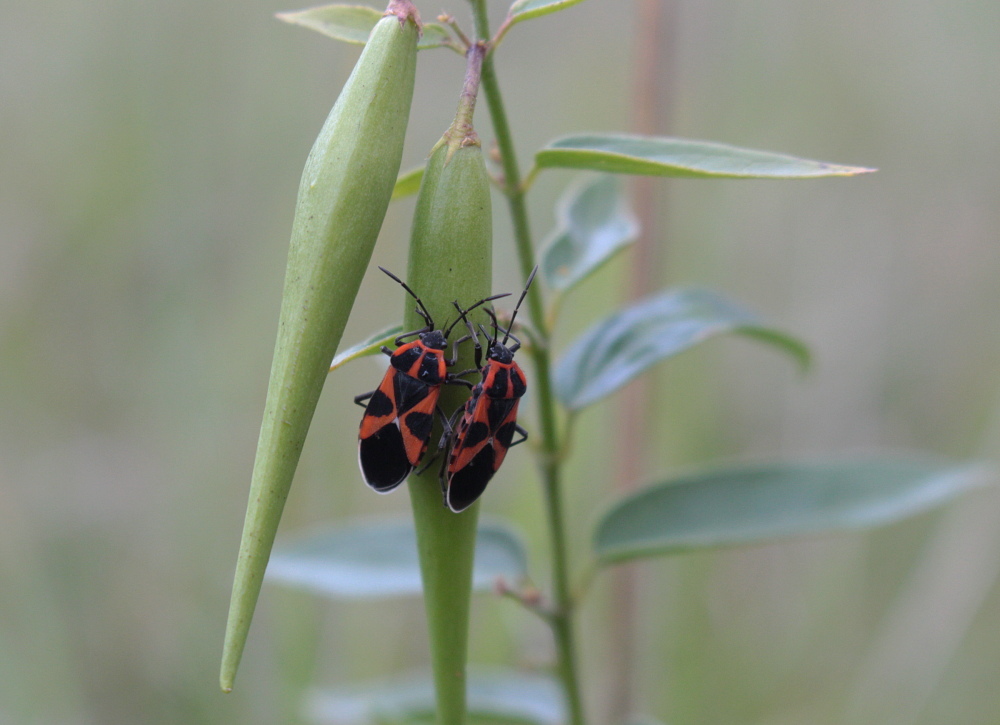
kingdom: Animalia
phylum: Arthropoda
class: Insecta
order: Hemiptera
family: Lygaeidae
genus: Tropidothorax
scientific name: Tropidothorax leucopterus
